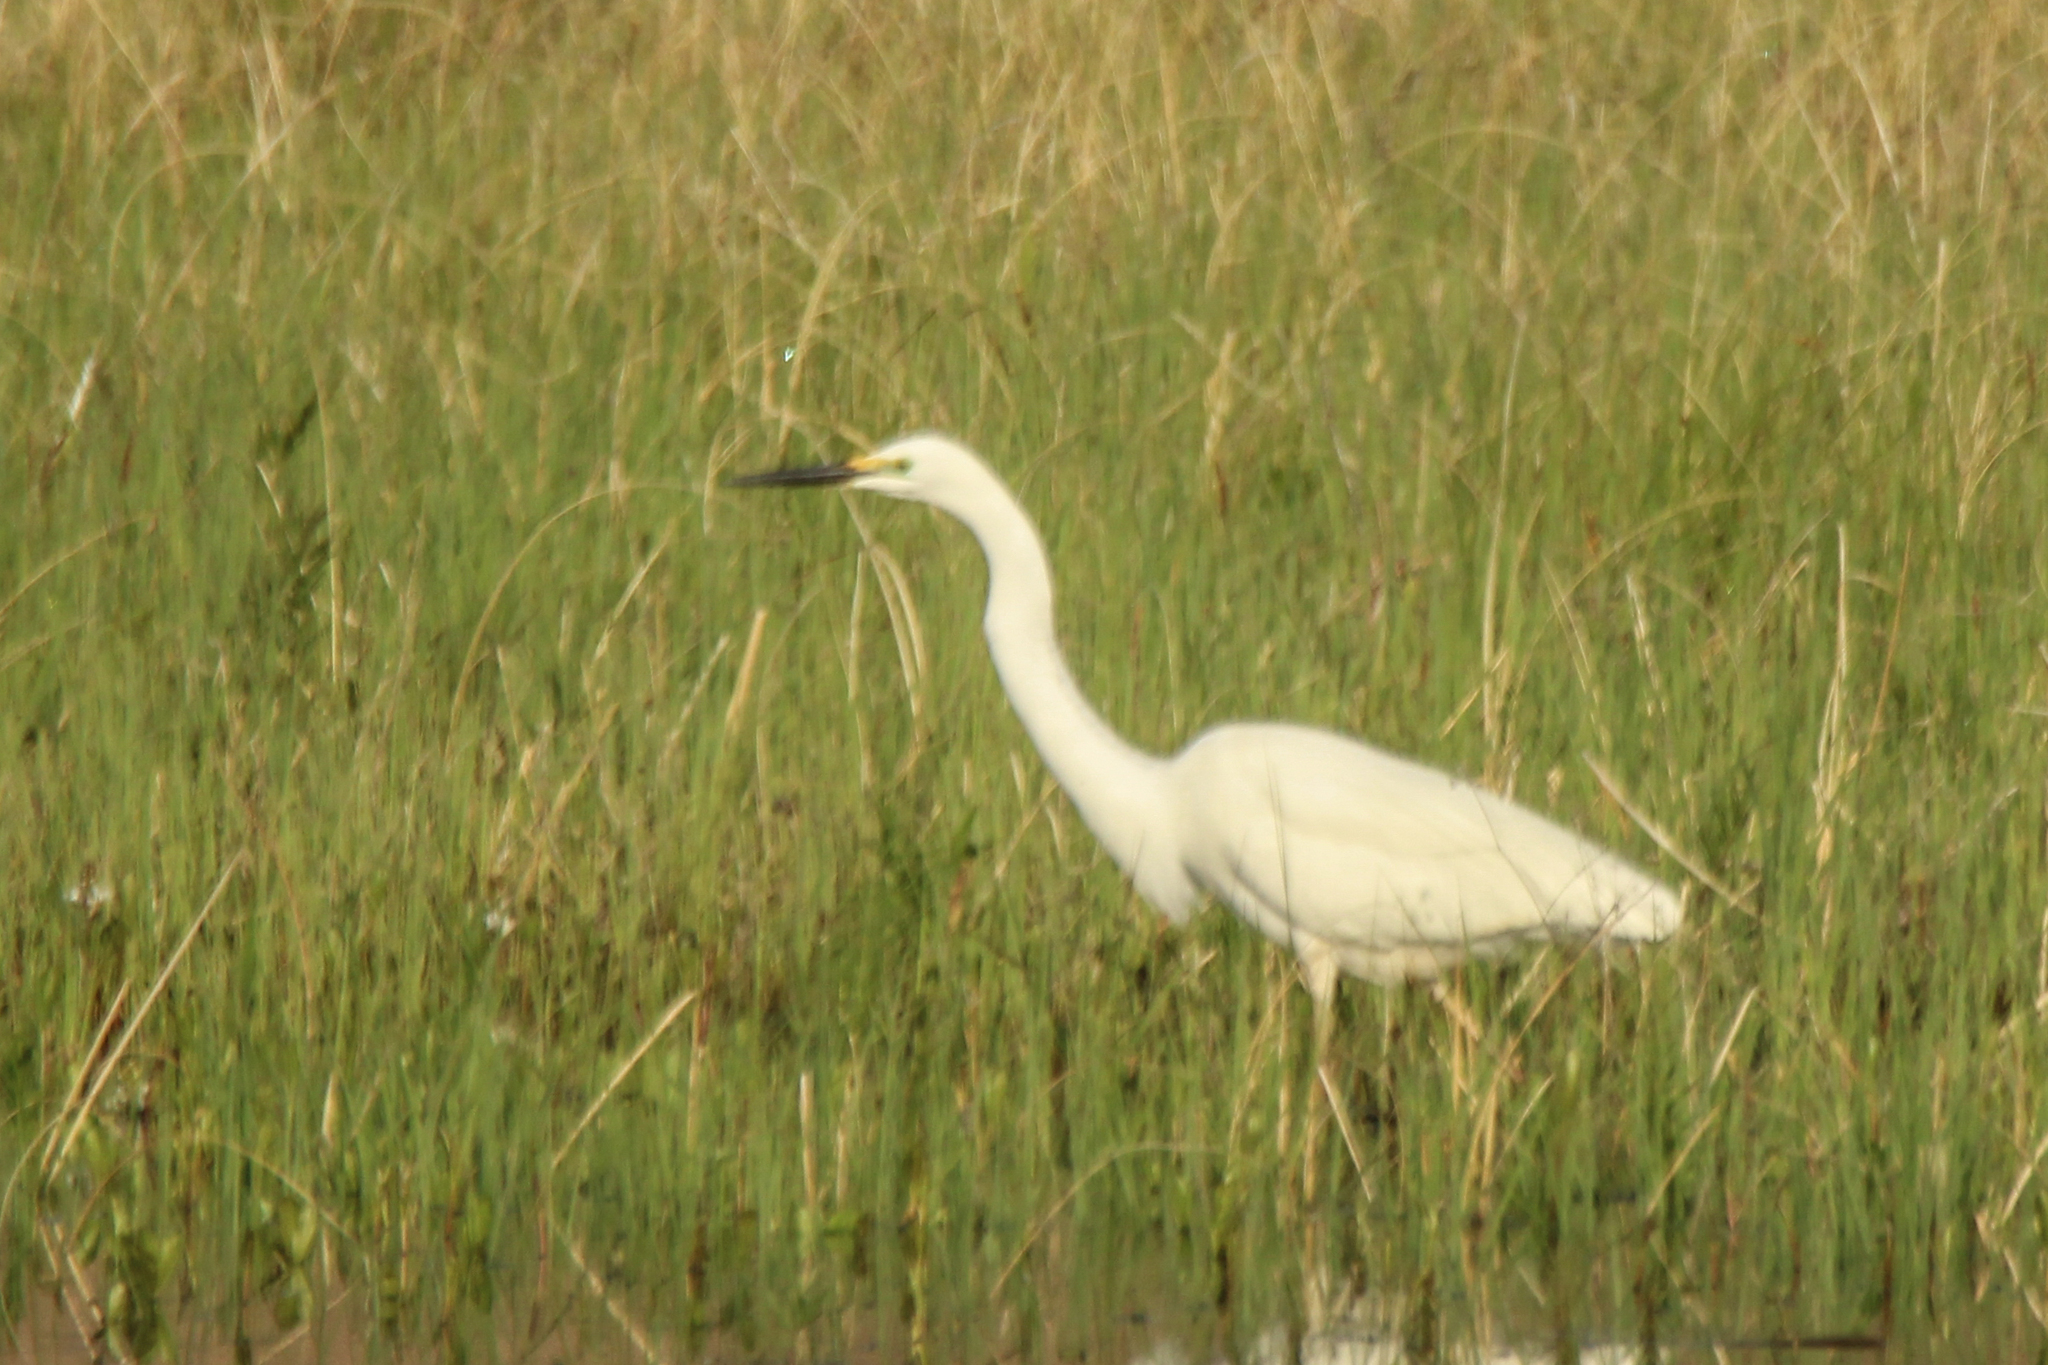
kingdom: Animalia
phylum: Chordata
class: Aves
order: Pelecaniformes
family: Ardeidae
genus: Ardea
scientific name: Ardea alba
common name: Great egret
